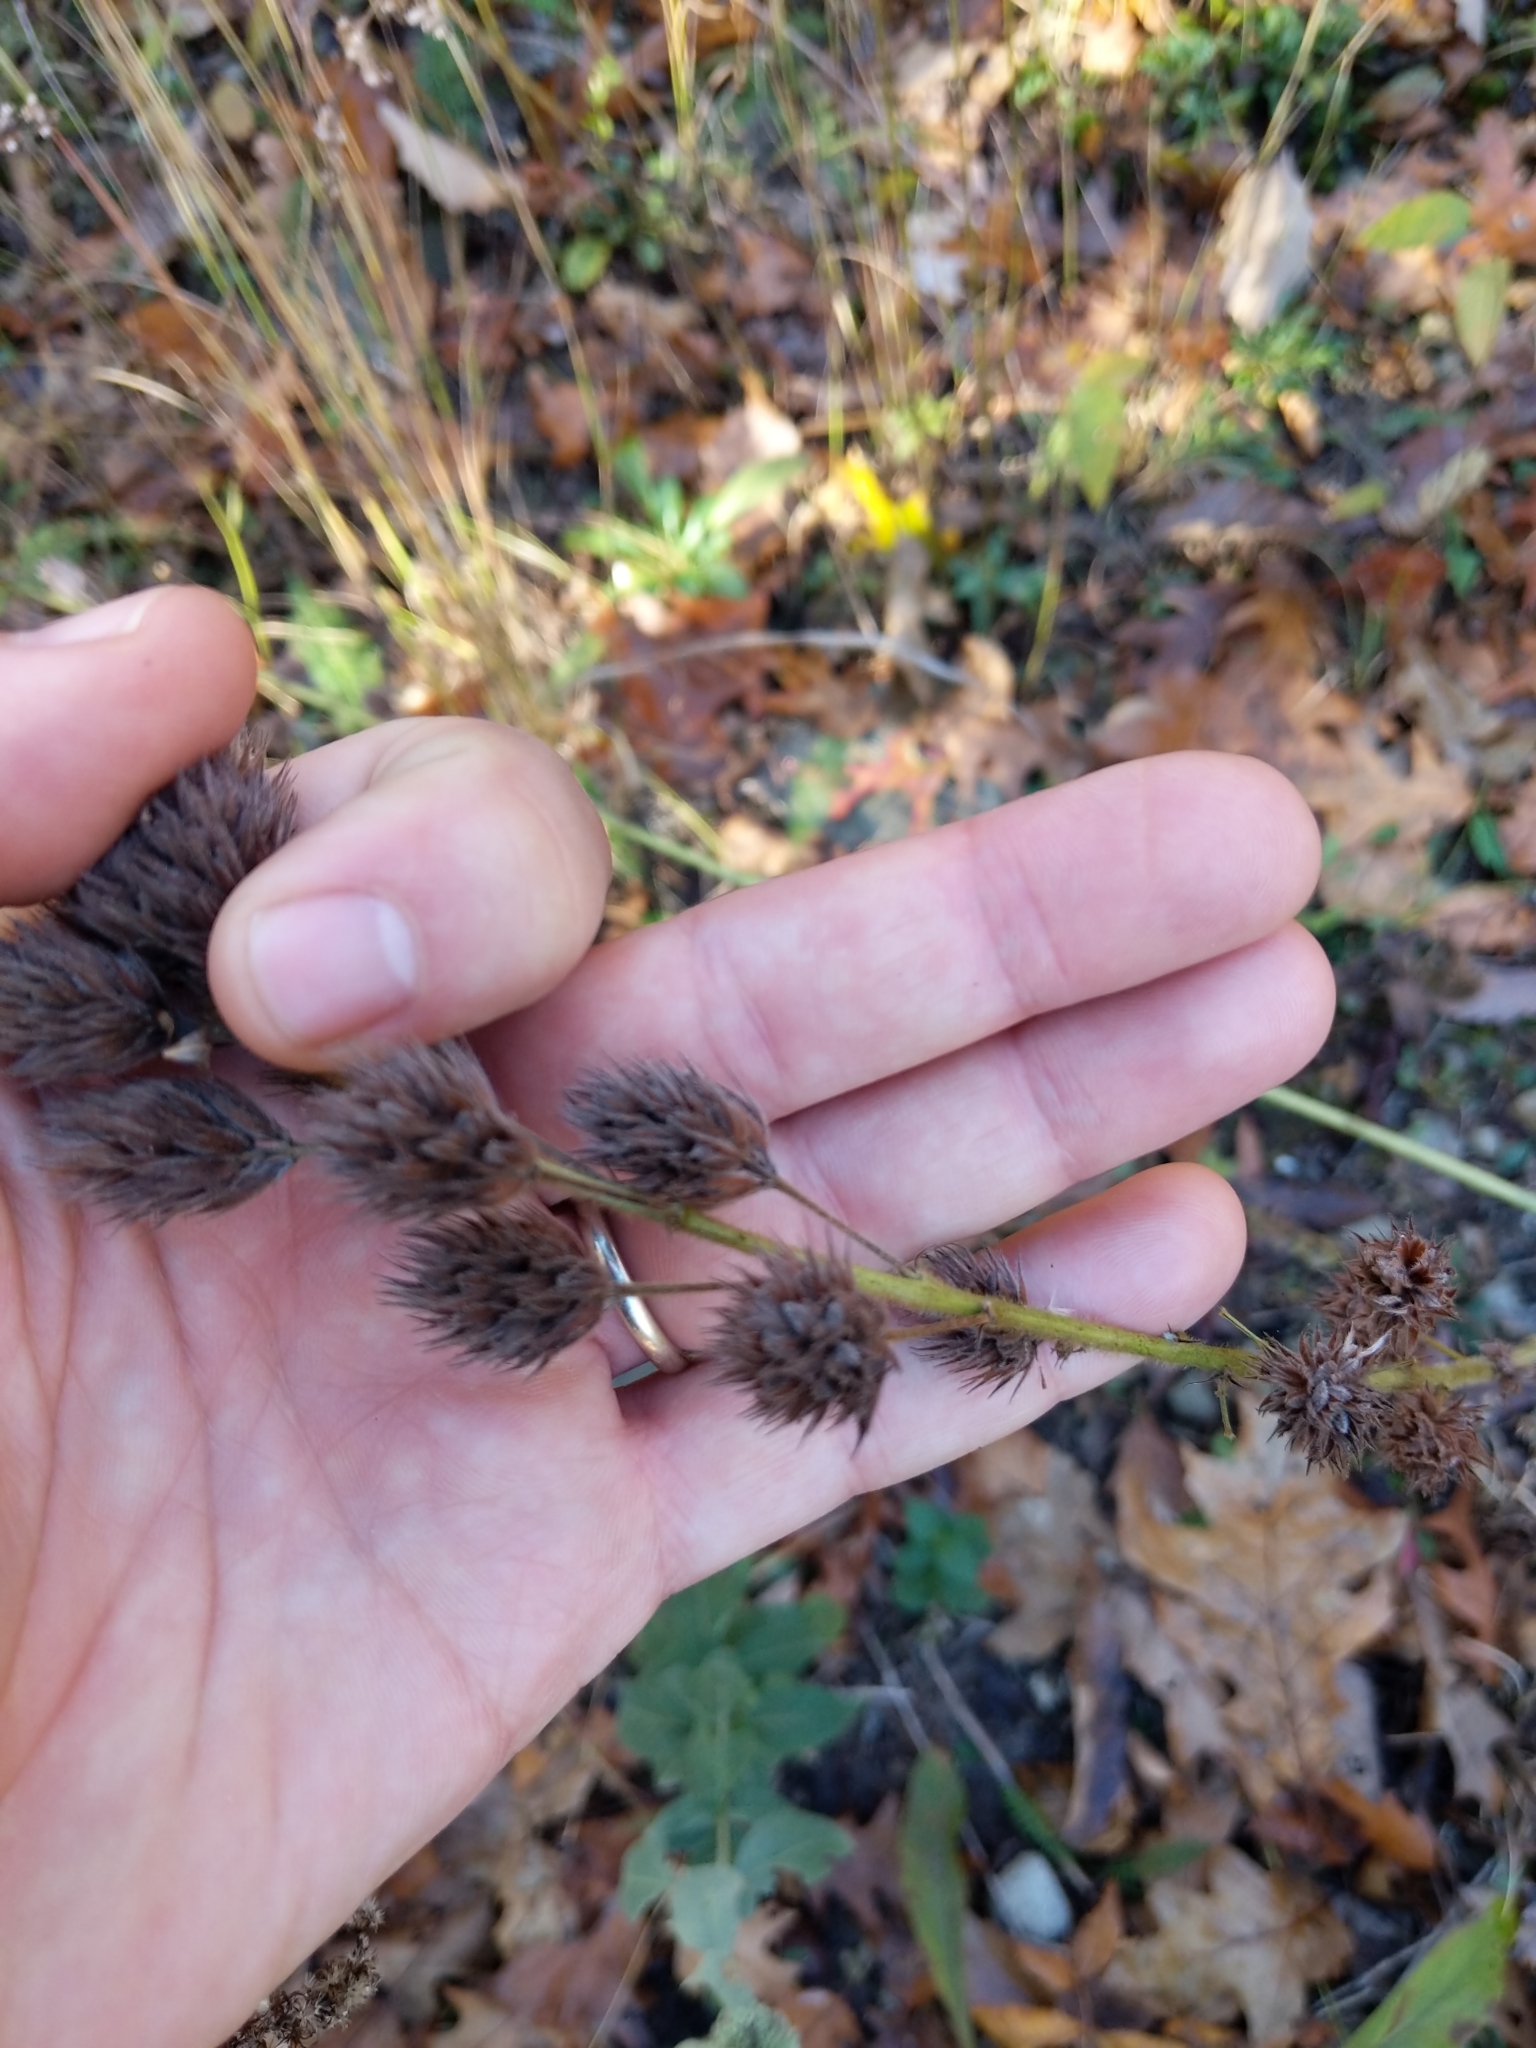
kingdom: Plantae
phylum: Tracheophyta
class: Magnoliopsida
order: Fabales
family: Fabaceae
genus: Lespedeza
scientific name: Lespedeza capitata
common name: Dusty clover
